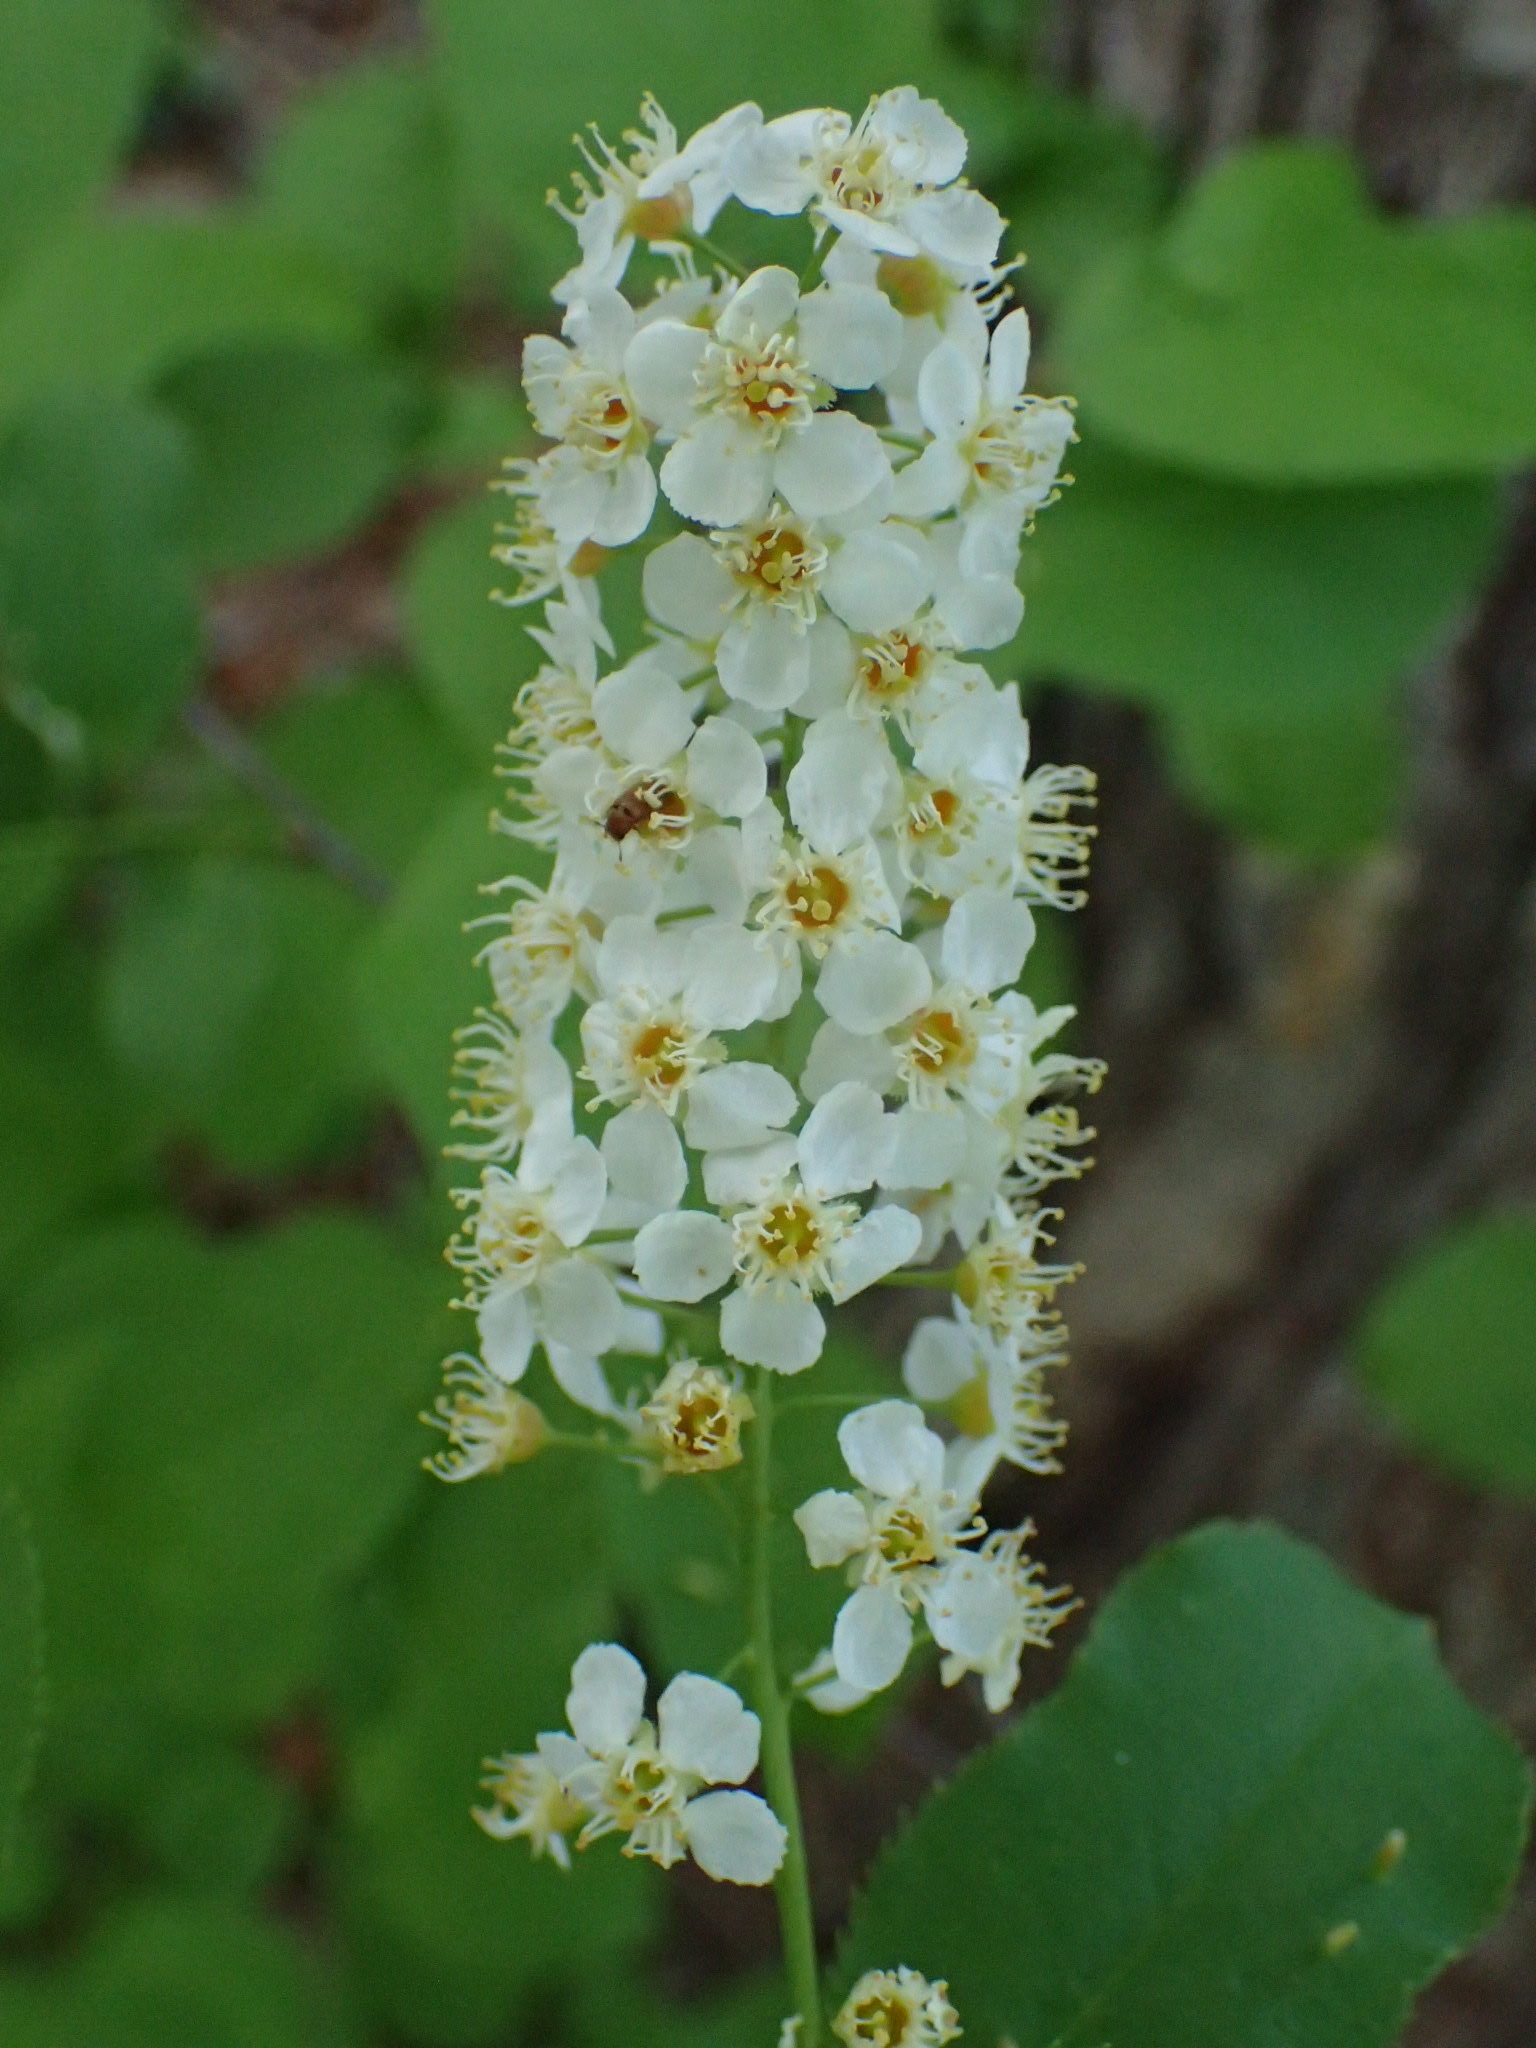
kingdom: Plantae
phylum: Tracheophyta
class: Magnoliopsida
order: Rosales
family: Rosaceae
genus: Prunus
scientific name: Prunus virginiana
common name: Chokecherry
